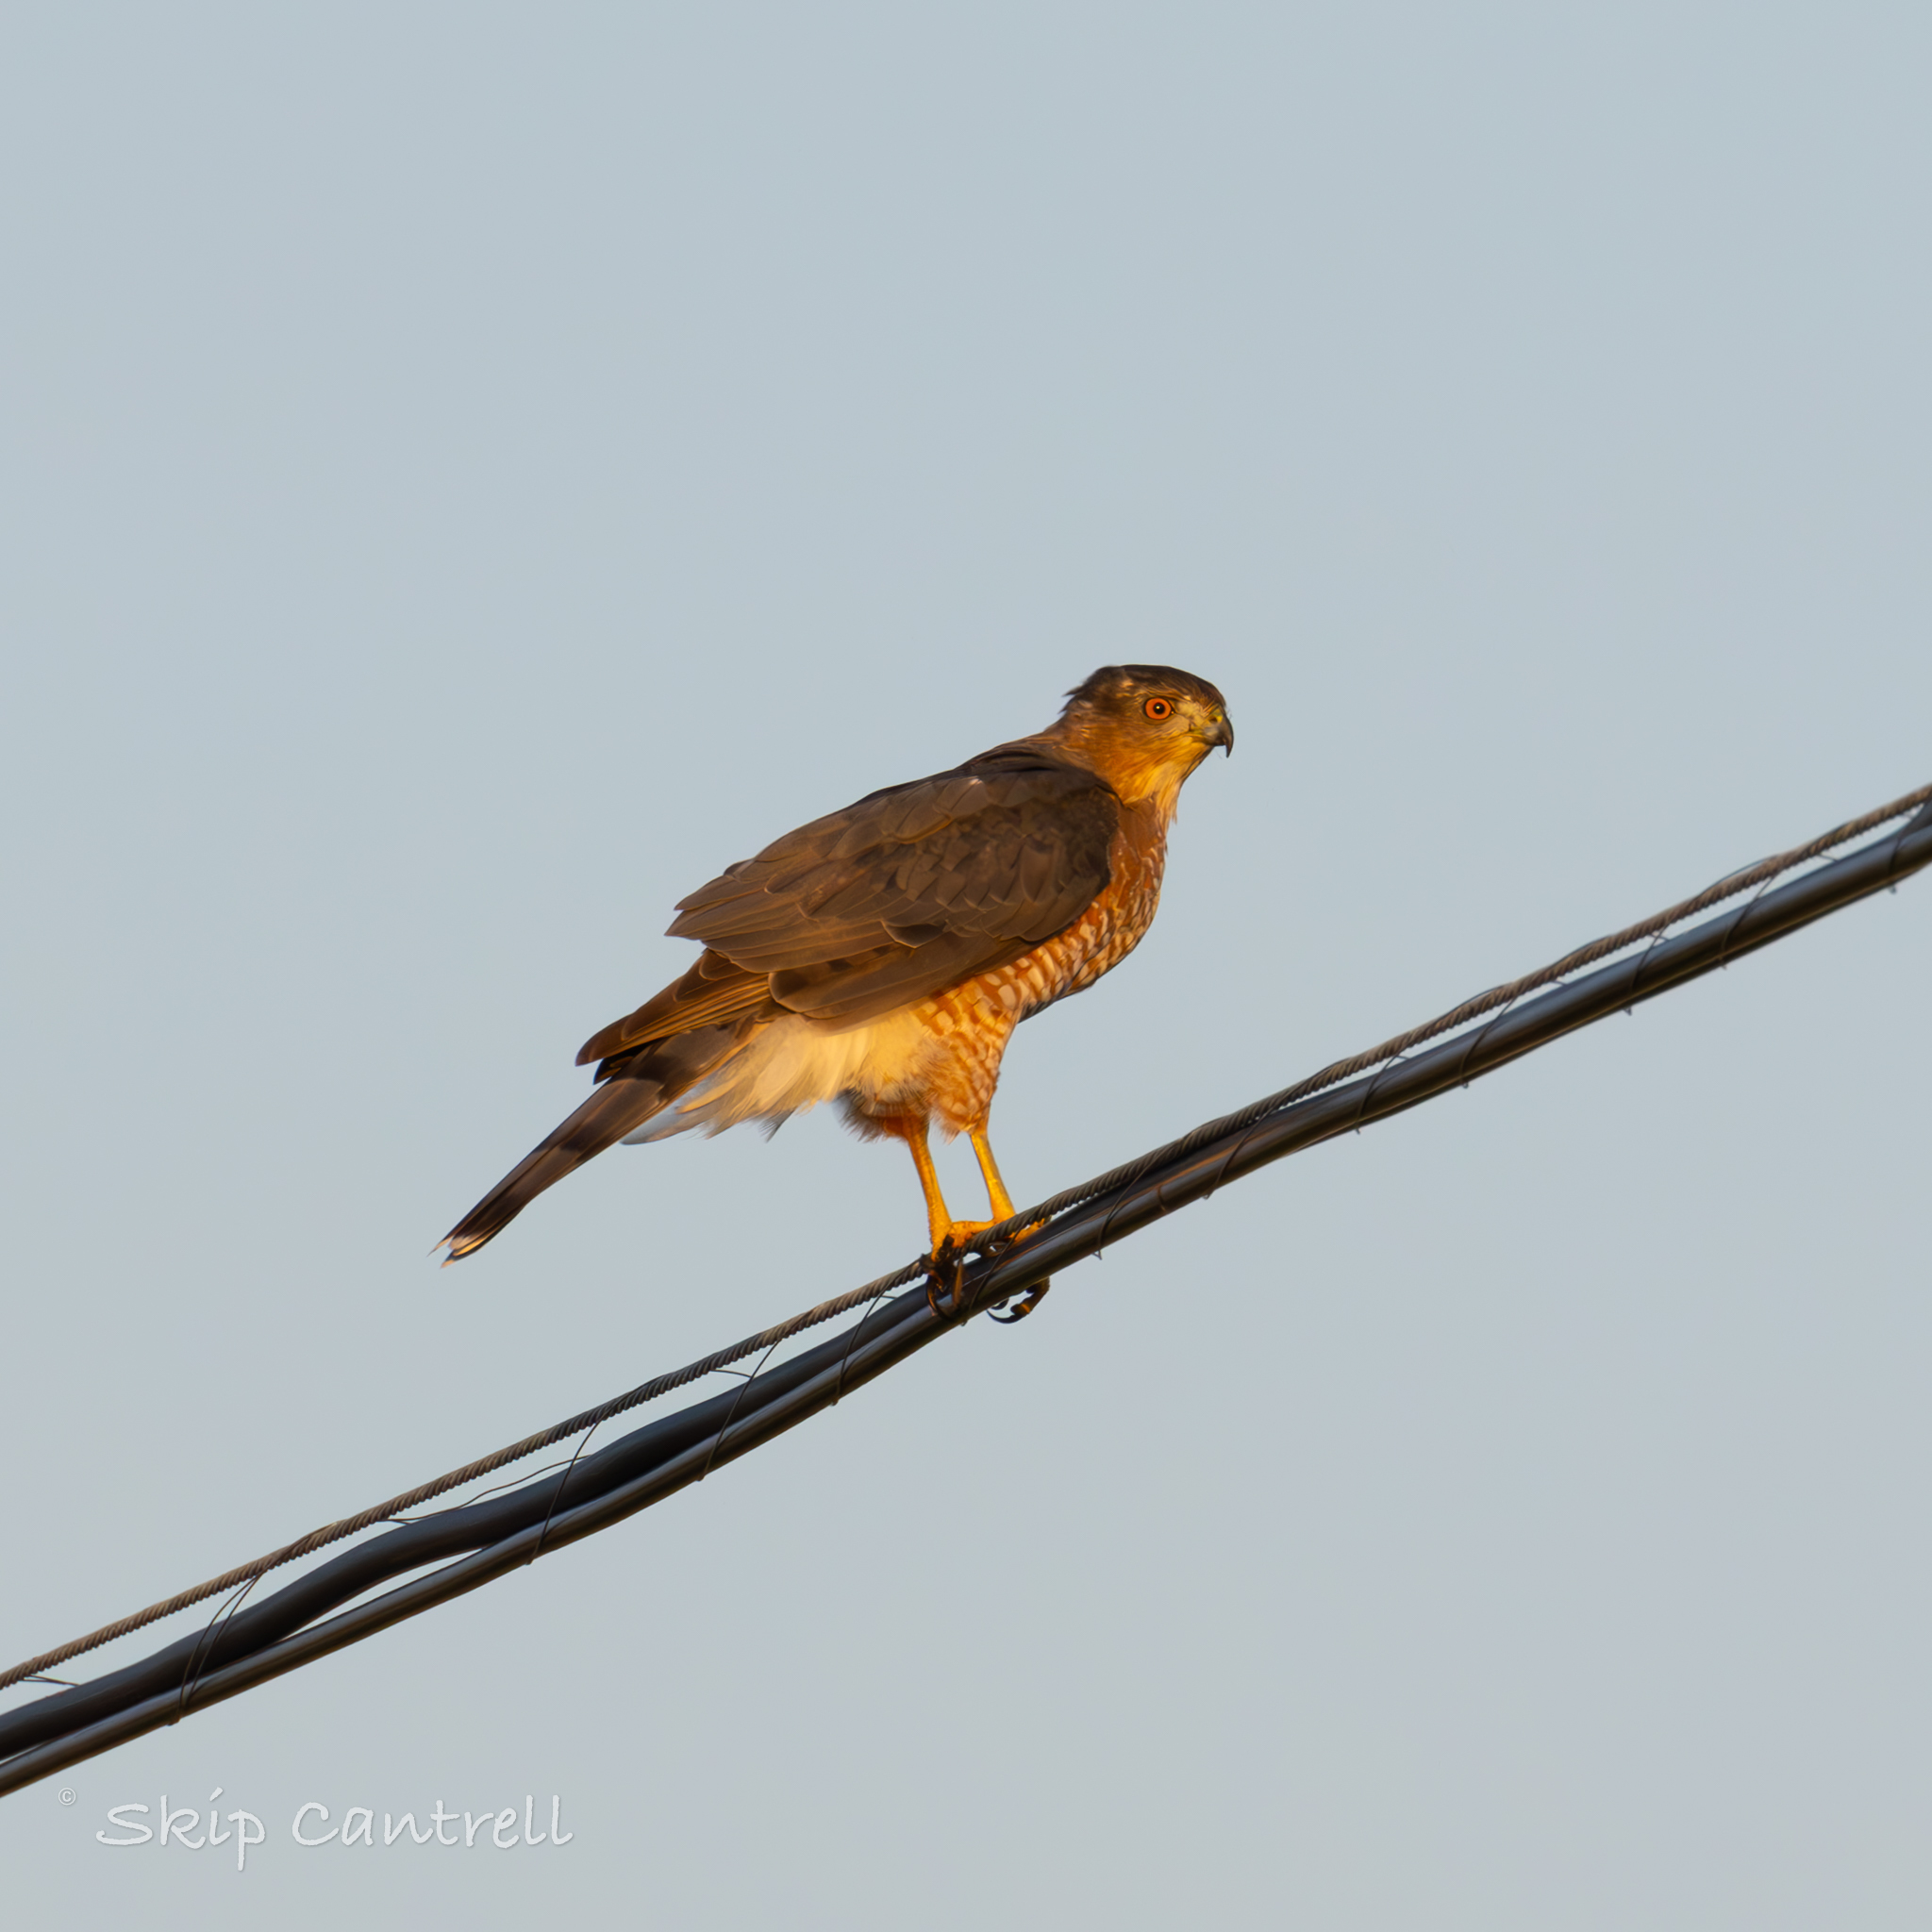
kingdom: Animalia
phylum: Chordata
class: Aves
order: Accipitriformes
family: Accipitridae
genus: Accipiter
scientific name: Accipiter cooperii
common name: Cooper's hawk
